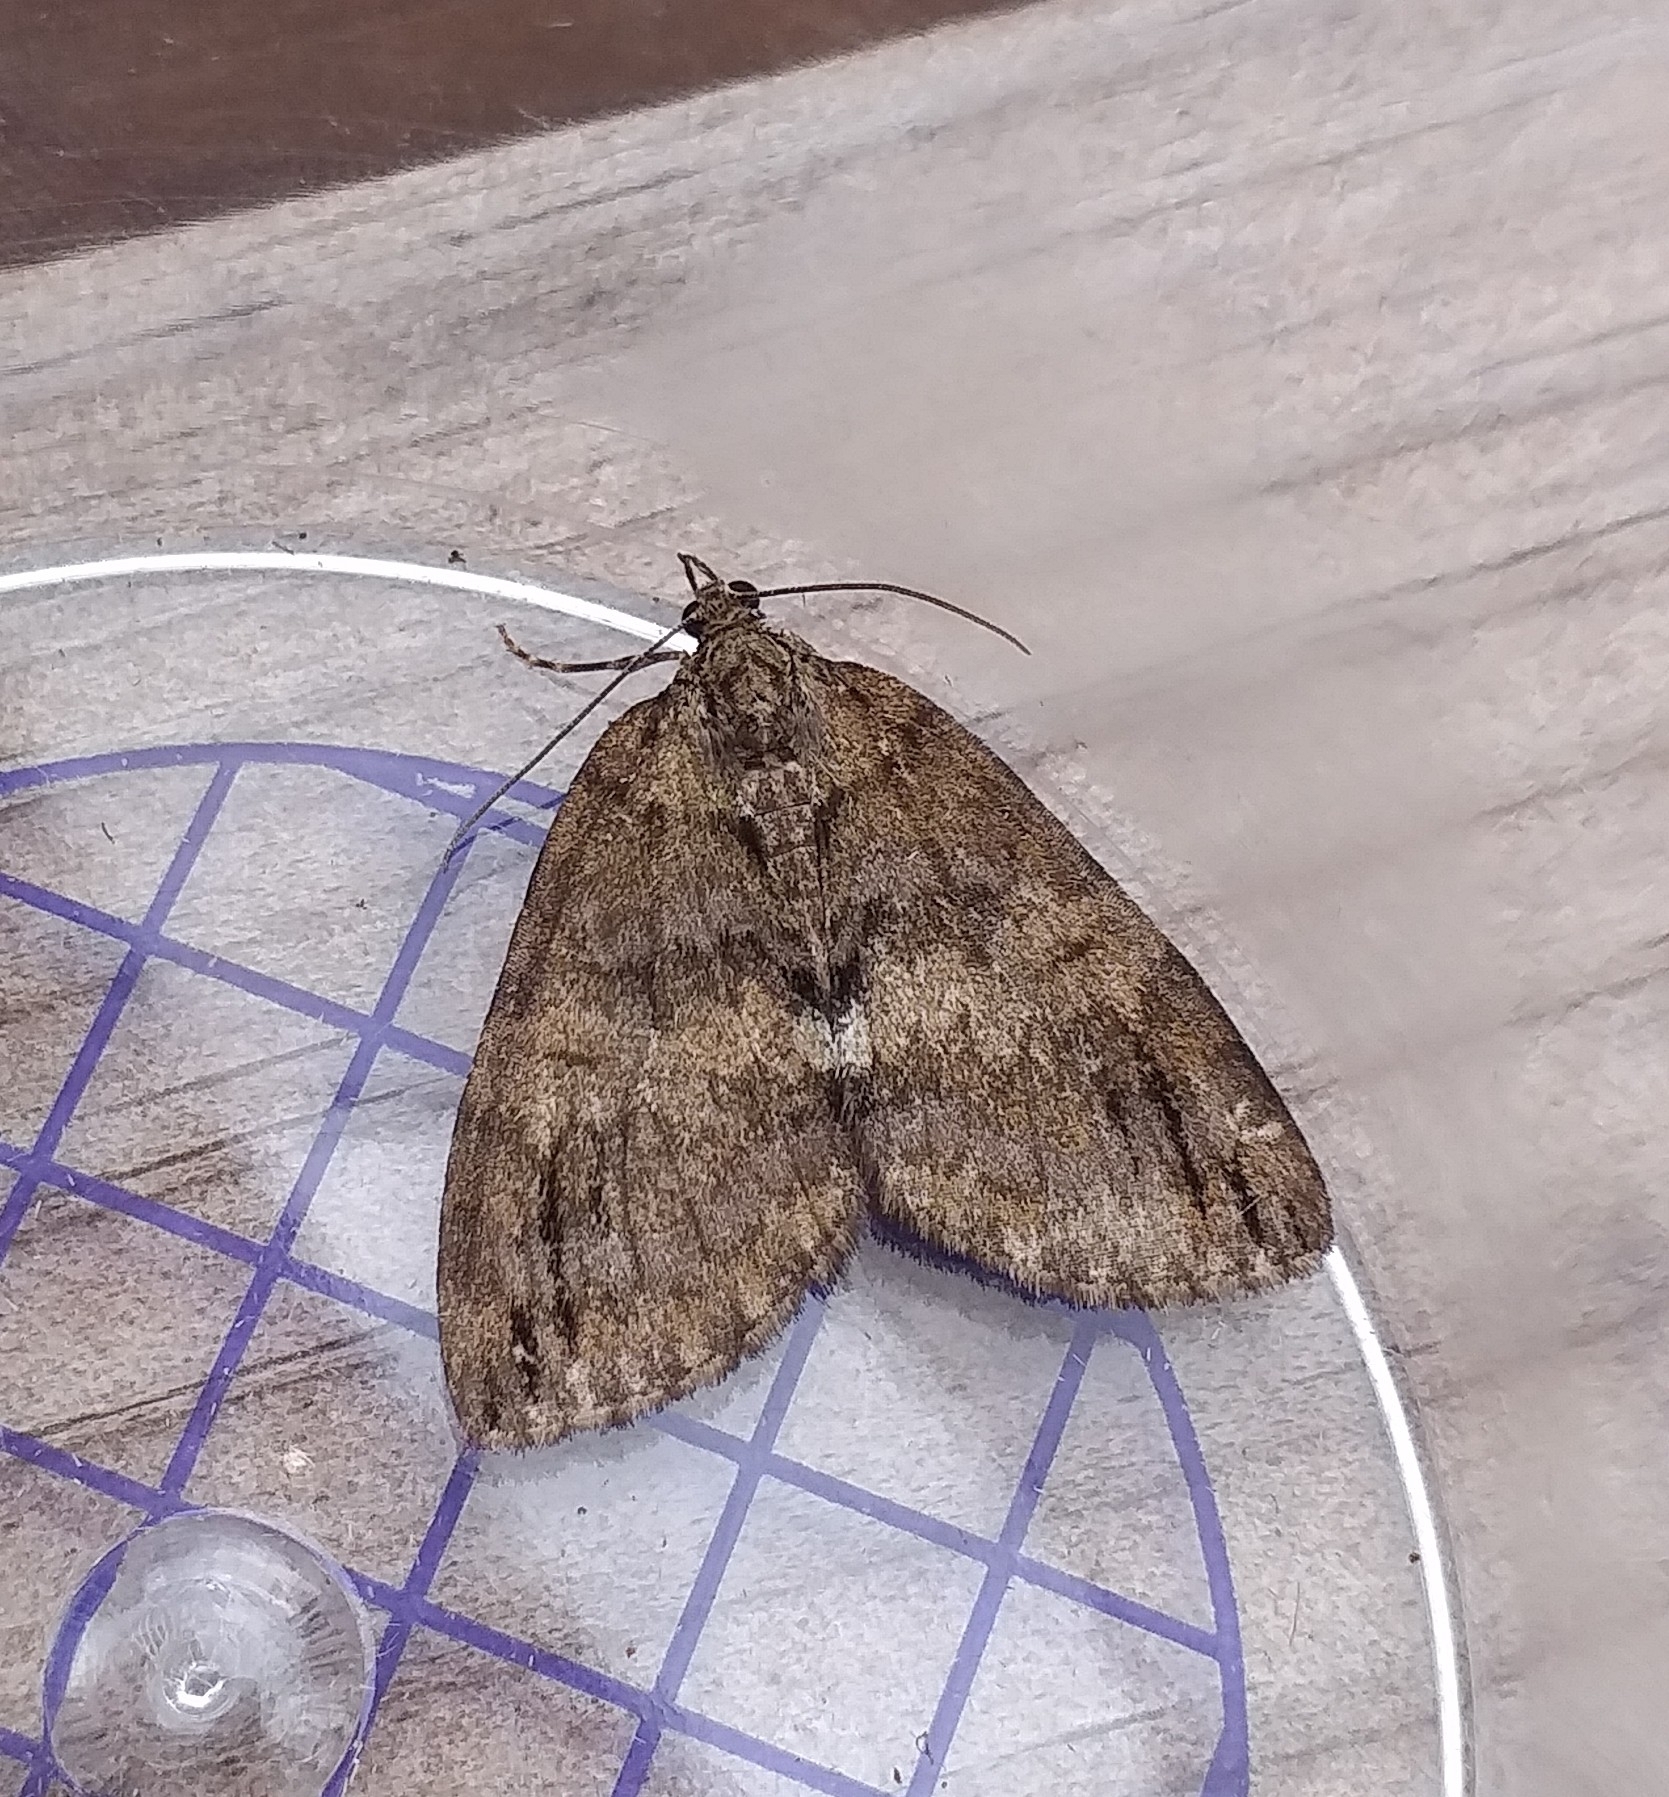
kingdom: Animalia
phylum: Arthropoda
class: Insecta
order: Lepidoptera
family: Geometridae
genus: Hydriomena
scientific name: Hydriomena impluviata
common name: May highflyer
